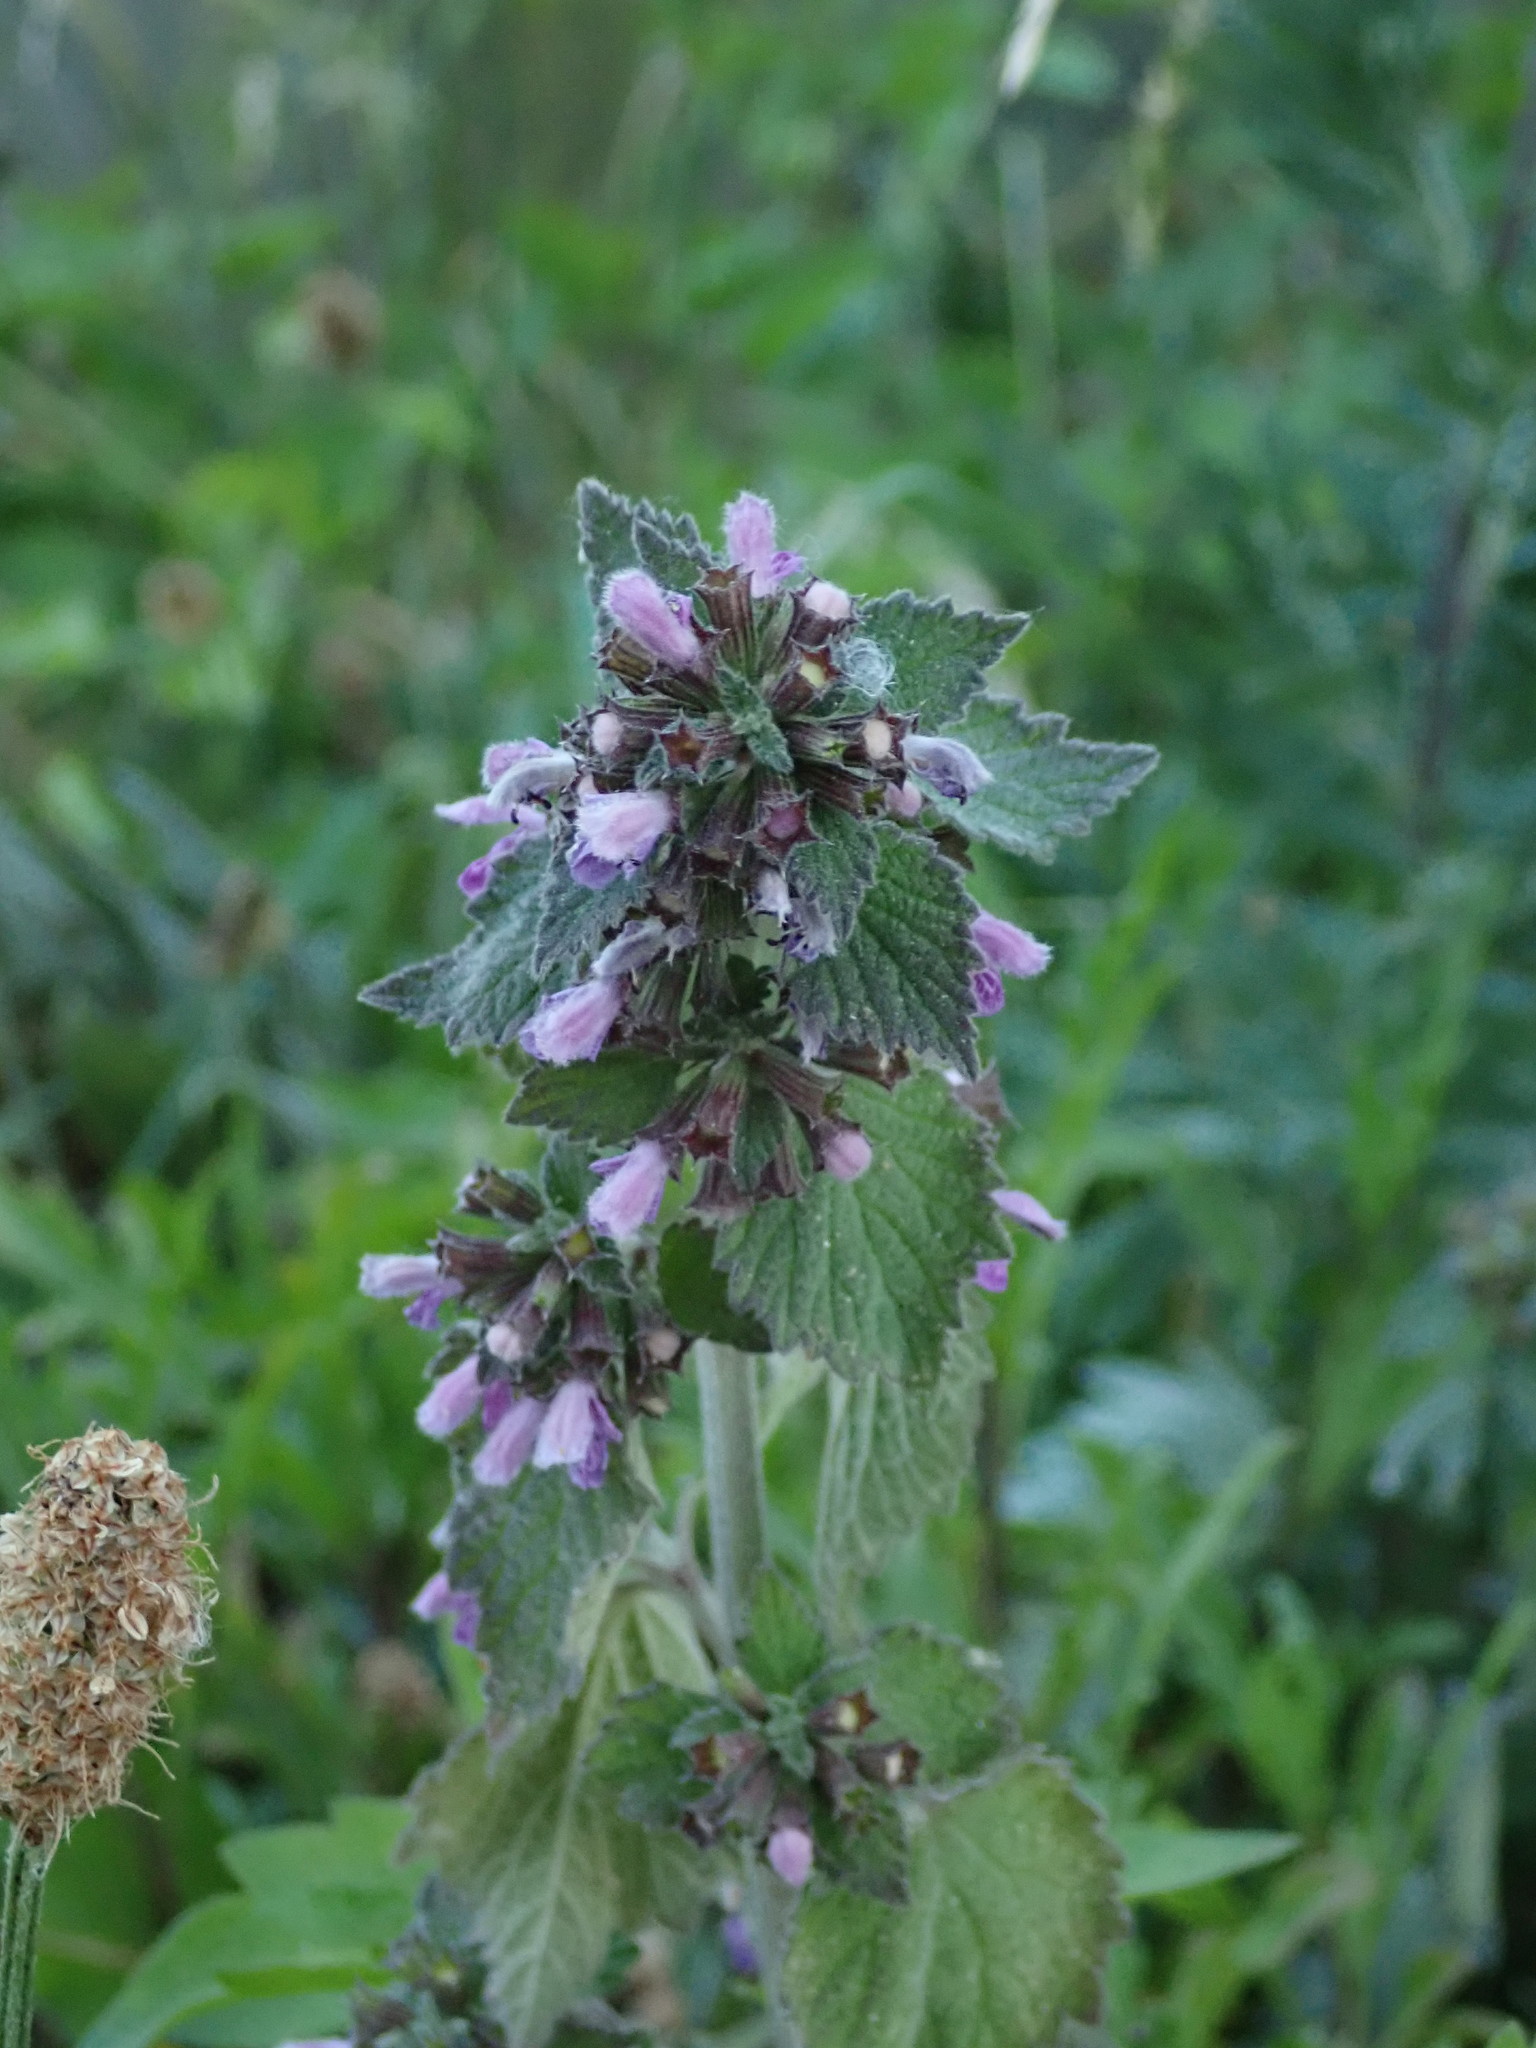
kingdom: Plantae
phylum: Tracheophyta
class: Magnoliopsida
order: Lamiales
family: Lamiaceae
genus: Ballota
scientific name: Ballota nigra
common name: Black horehound
